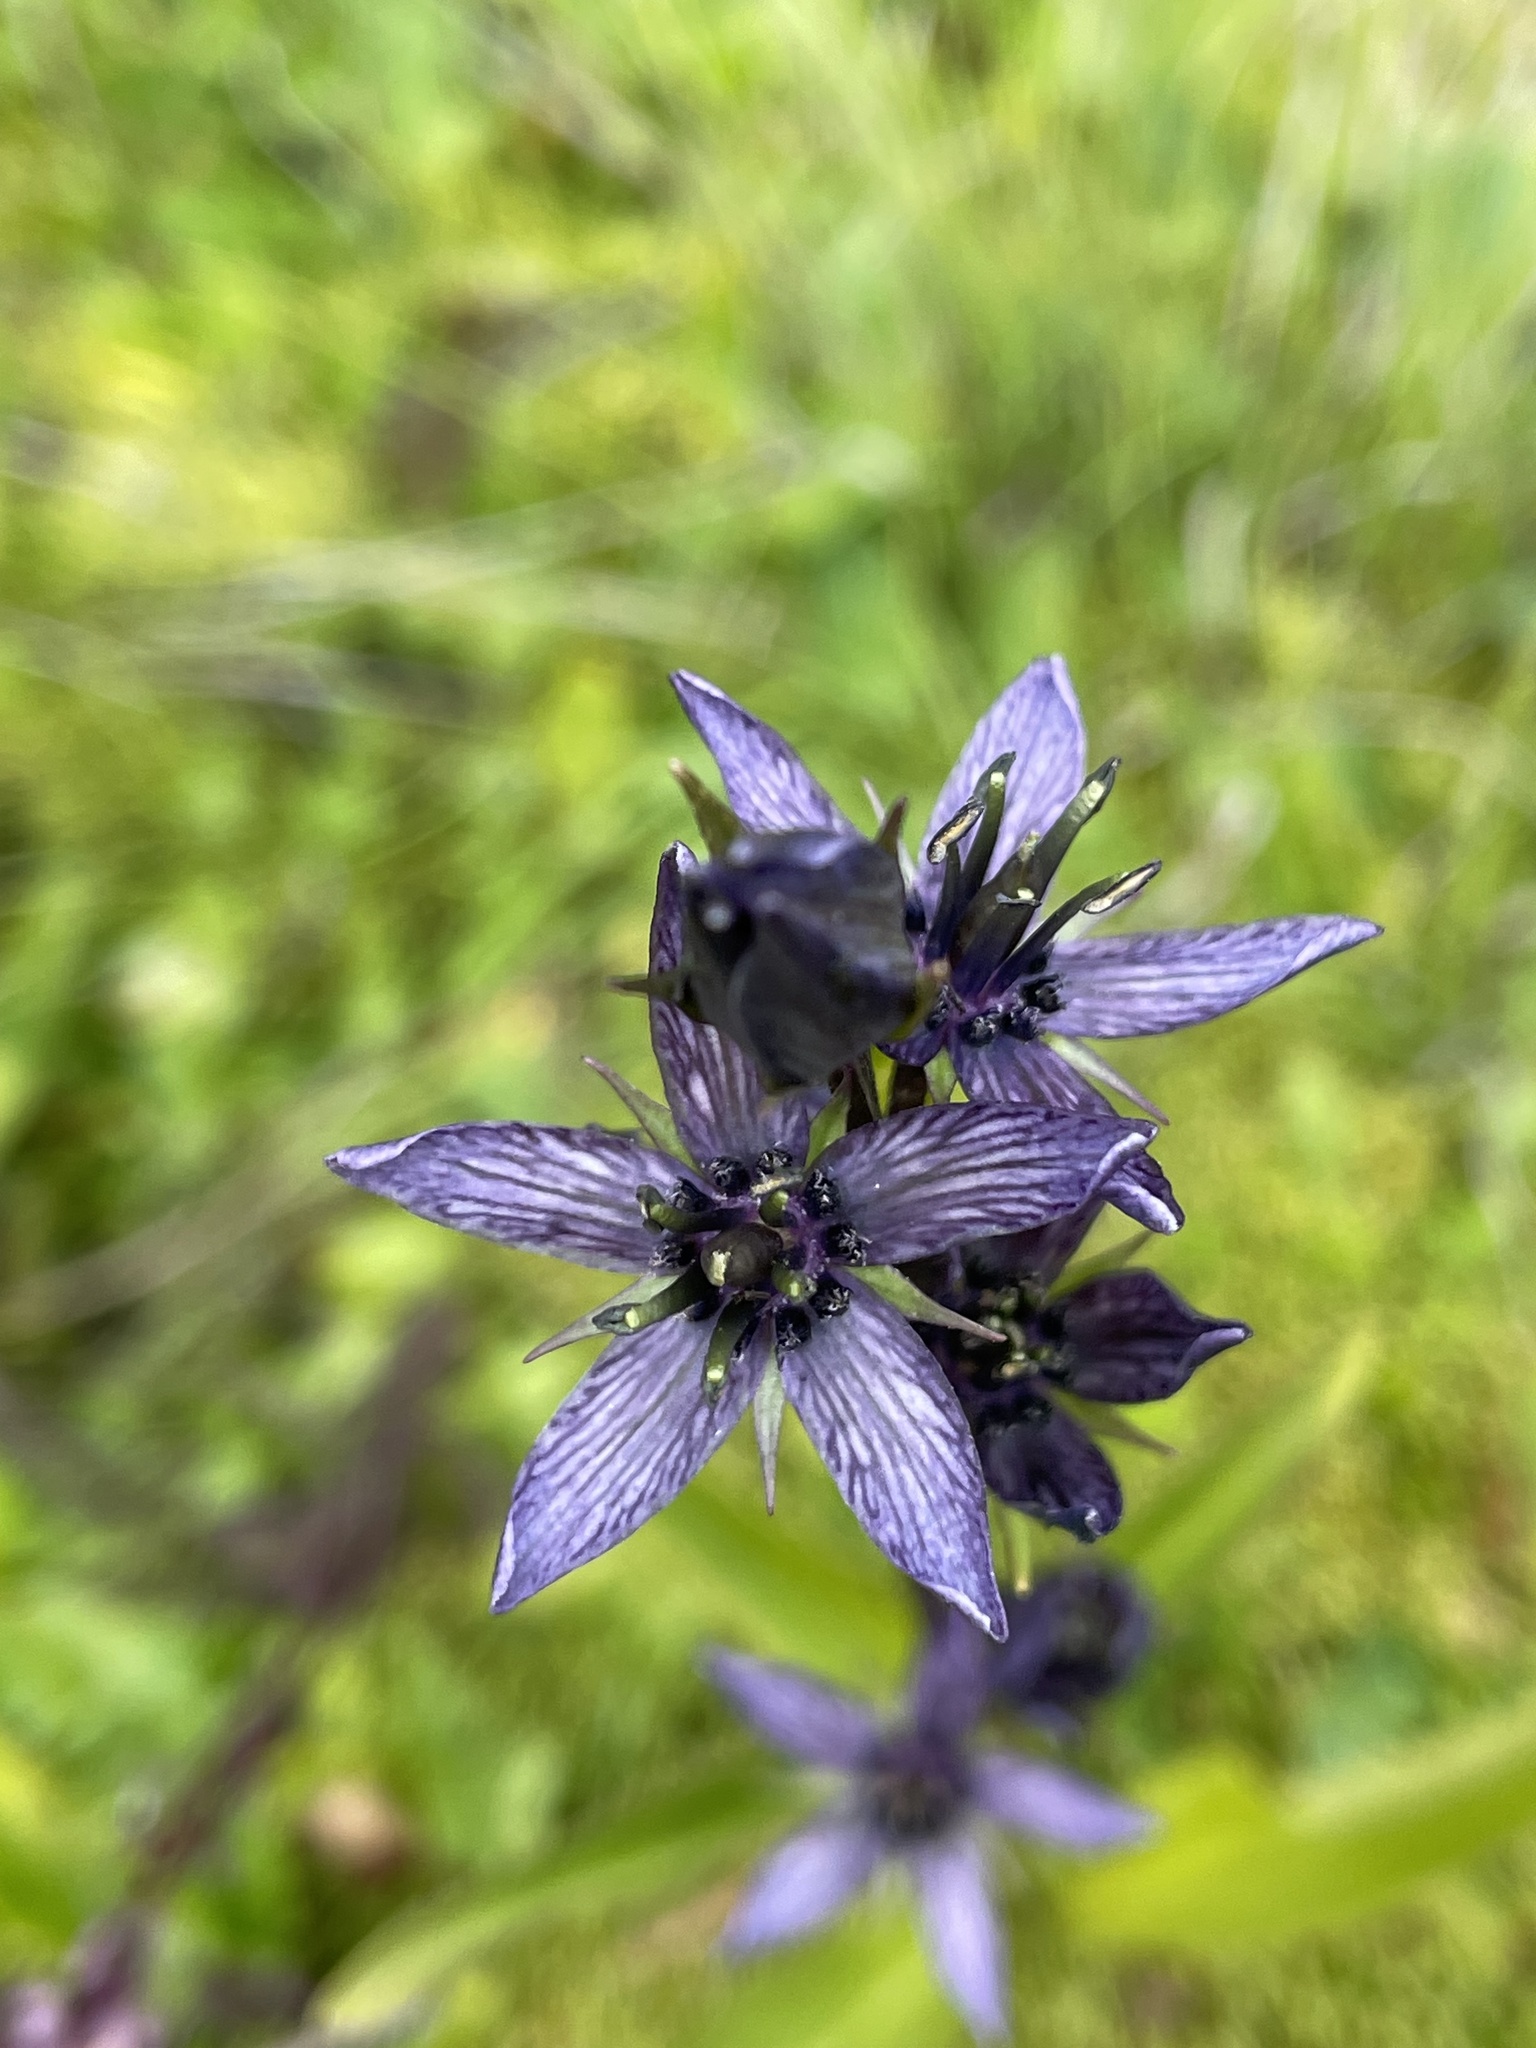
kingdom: Plantae
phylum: Tracheophyta
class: Magnoliopsida
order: Gentianales
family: Gentianaceae
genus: Swertia
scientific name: Swertia perennis
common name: Alpine bog swertia
